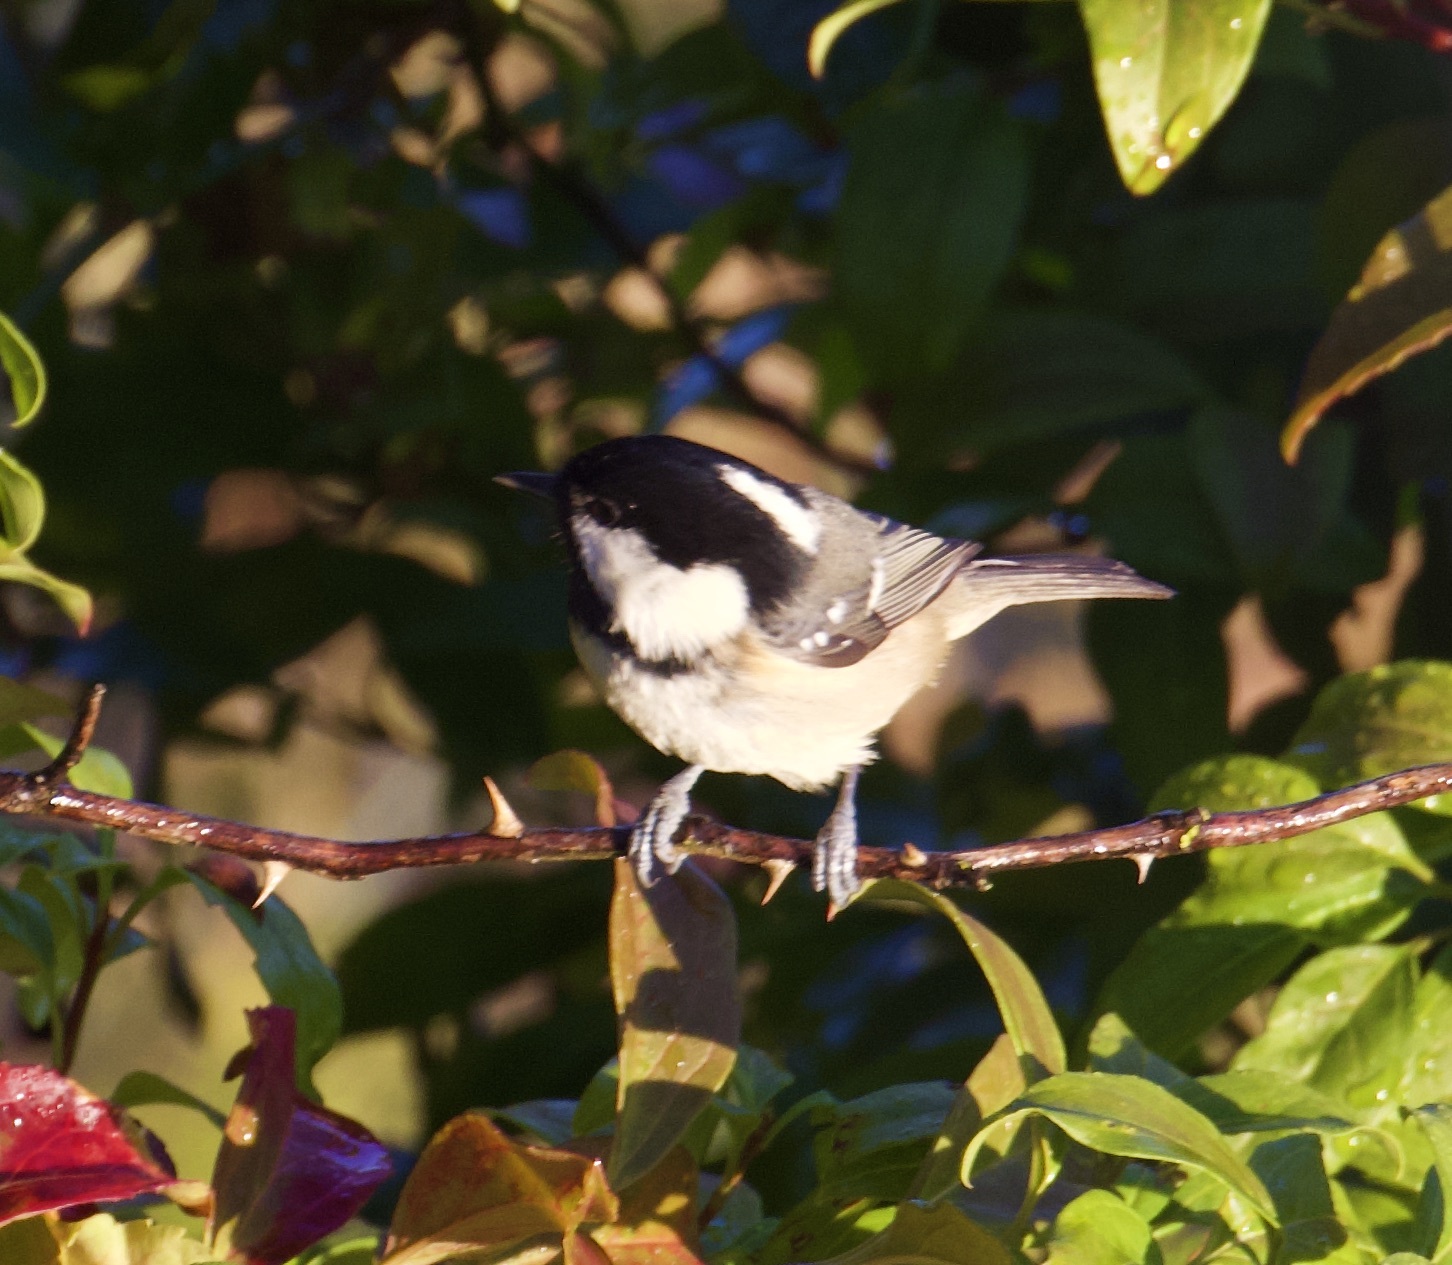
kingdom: Animalia
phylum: Chordata
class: Aves
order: Passeriformes
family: Paridae
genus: Periparus
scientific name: Periparus ater
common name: Coal tit
